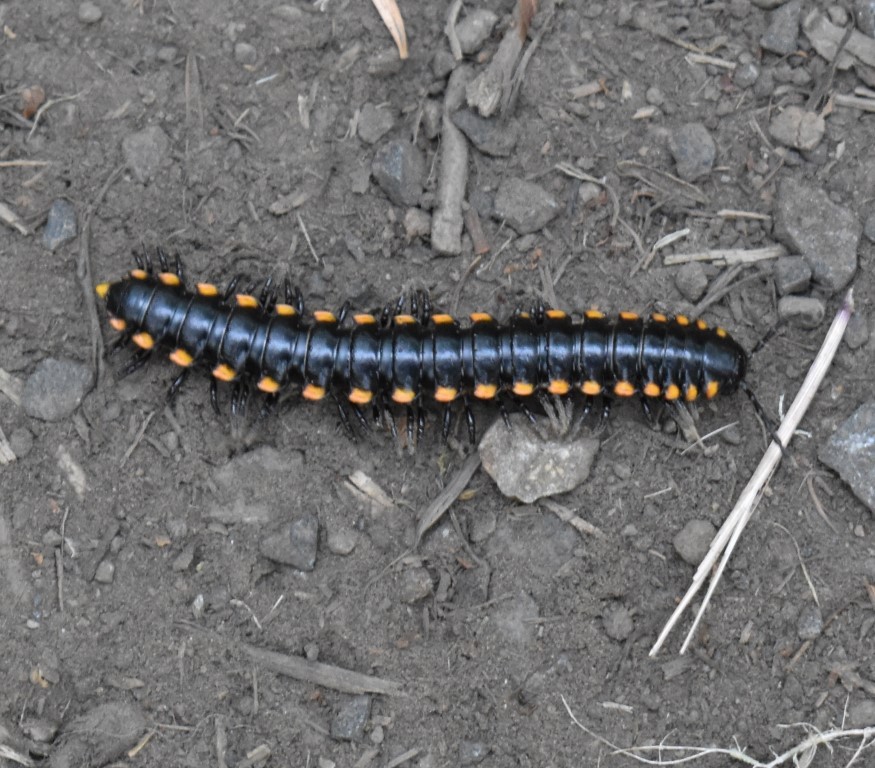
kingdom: Animalia
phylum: Arthropoda
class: Diplopoda
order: Polydesmida
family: Xystodesmidae
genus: Harpaphe
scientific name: Harpaphe haydeniana
